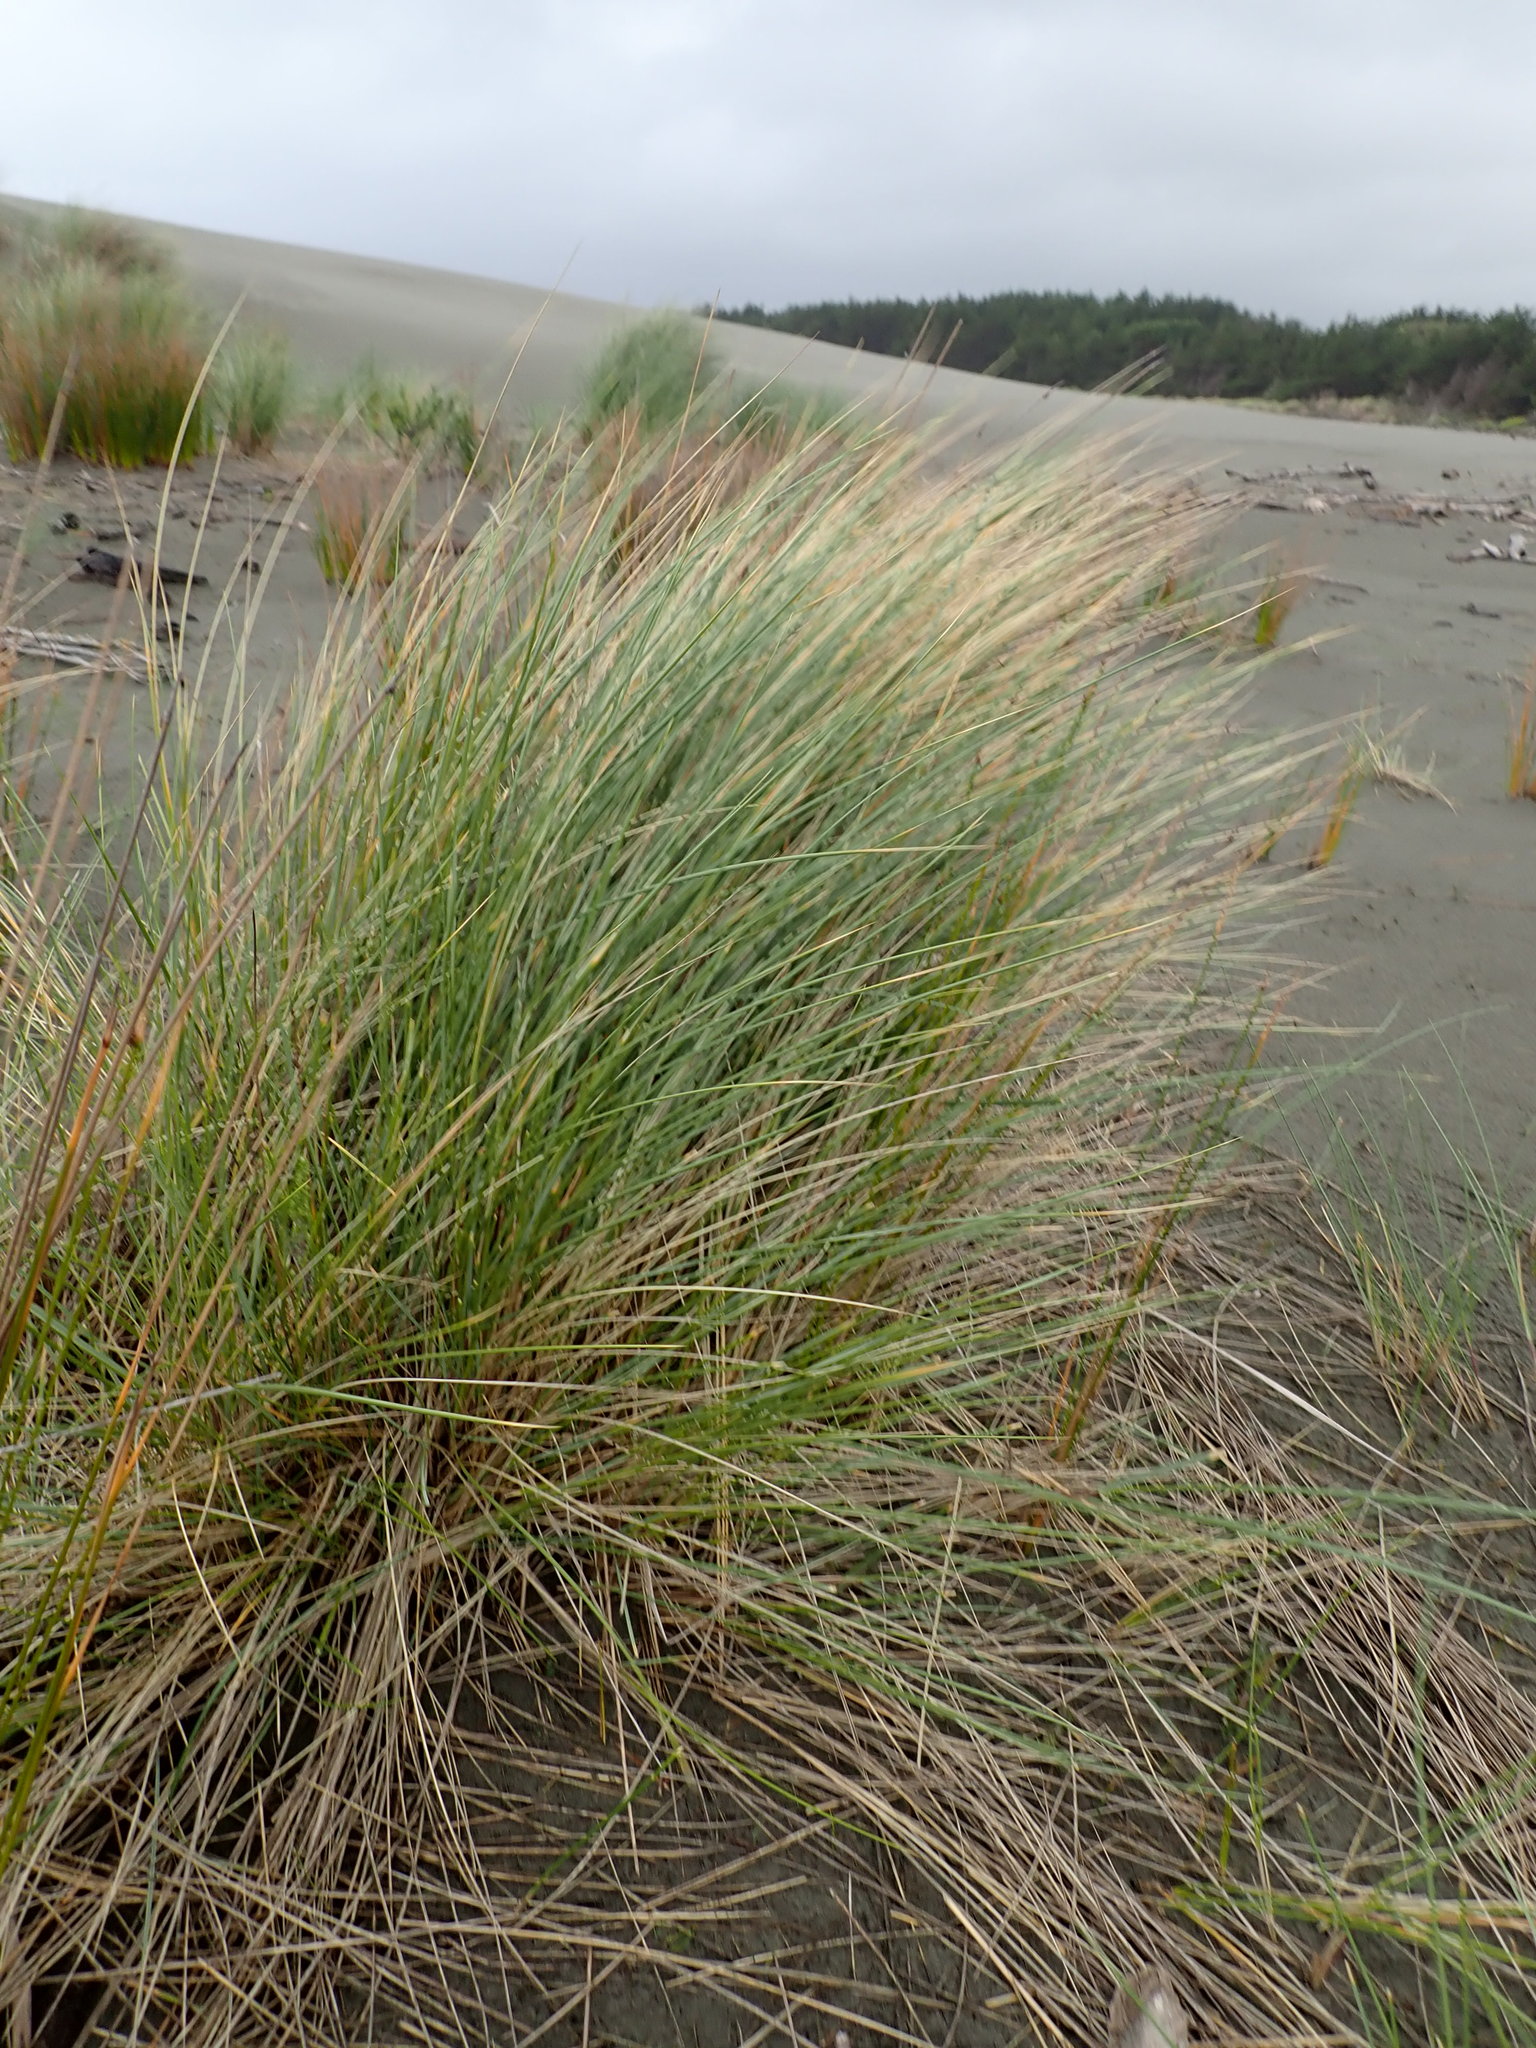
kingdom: Plantae
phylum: Tracheophyta
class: Liliopsida
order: Poales
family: Poaceae
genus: Calamagrostis
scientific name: Calamagrostis arenaria
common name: European beachgrass
